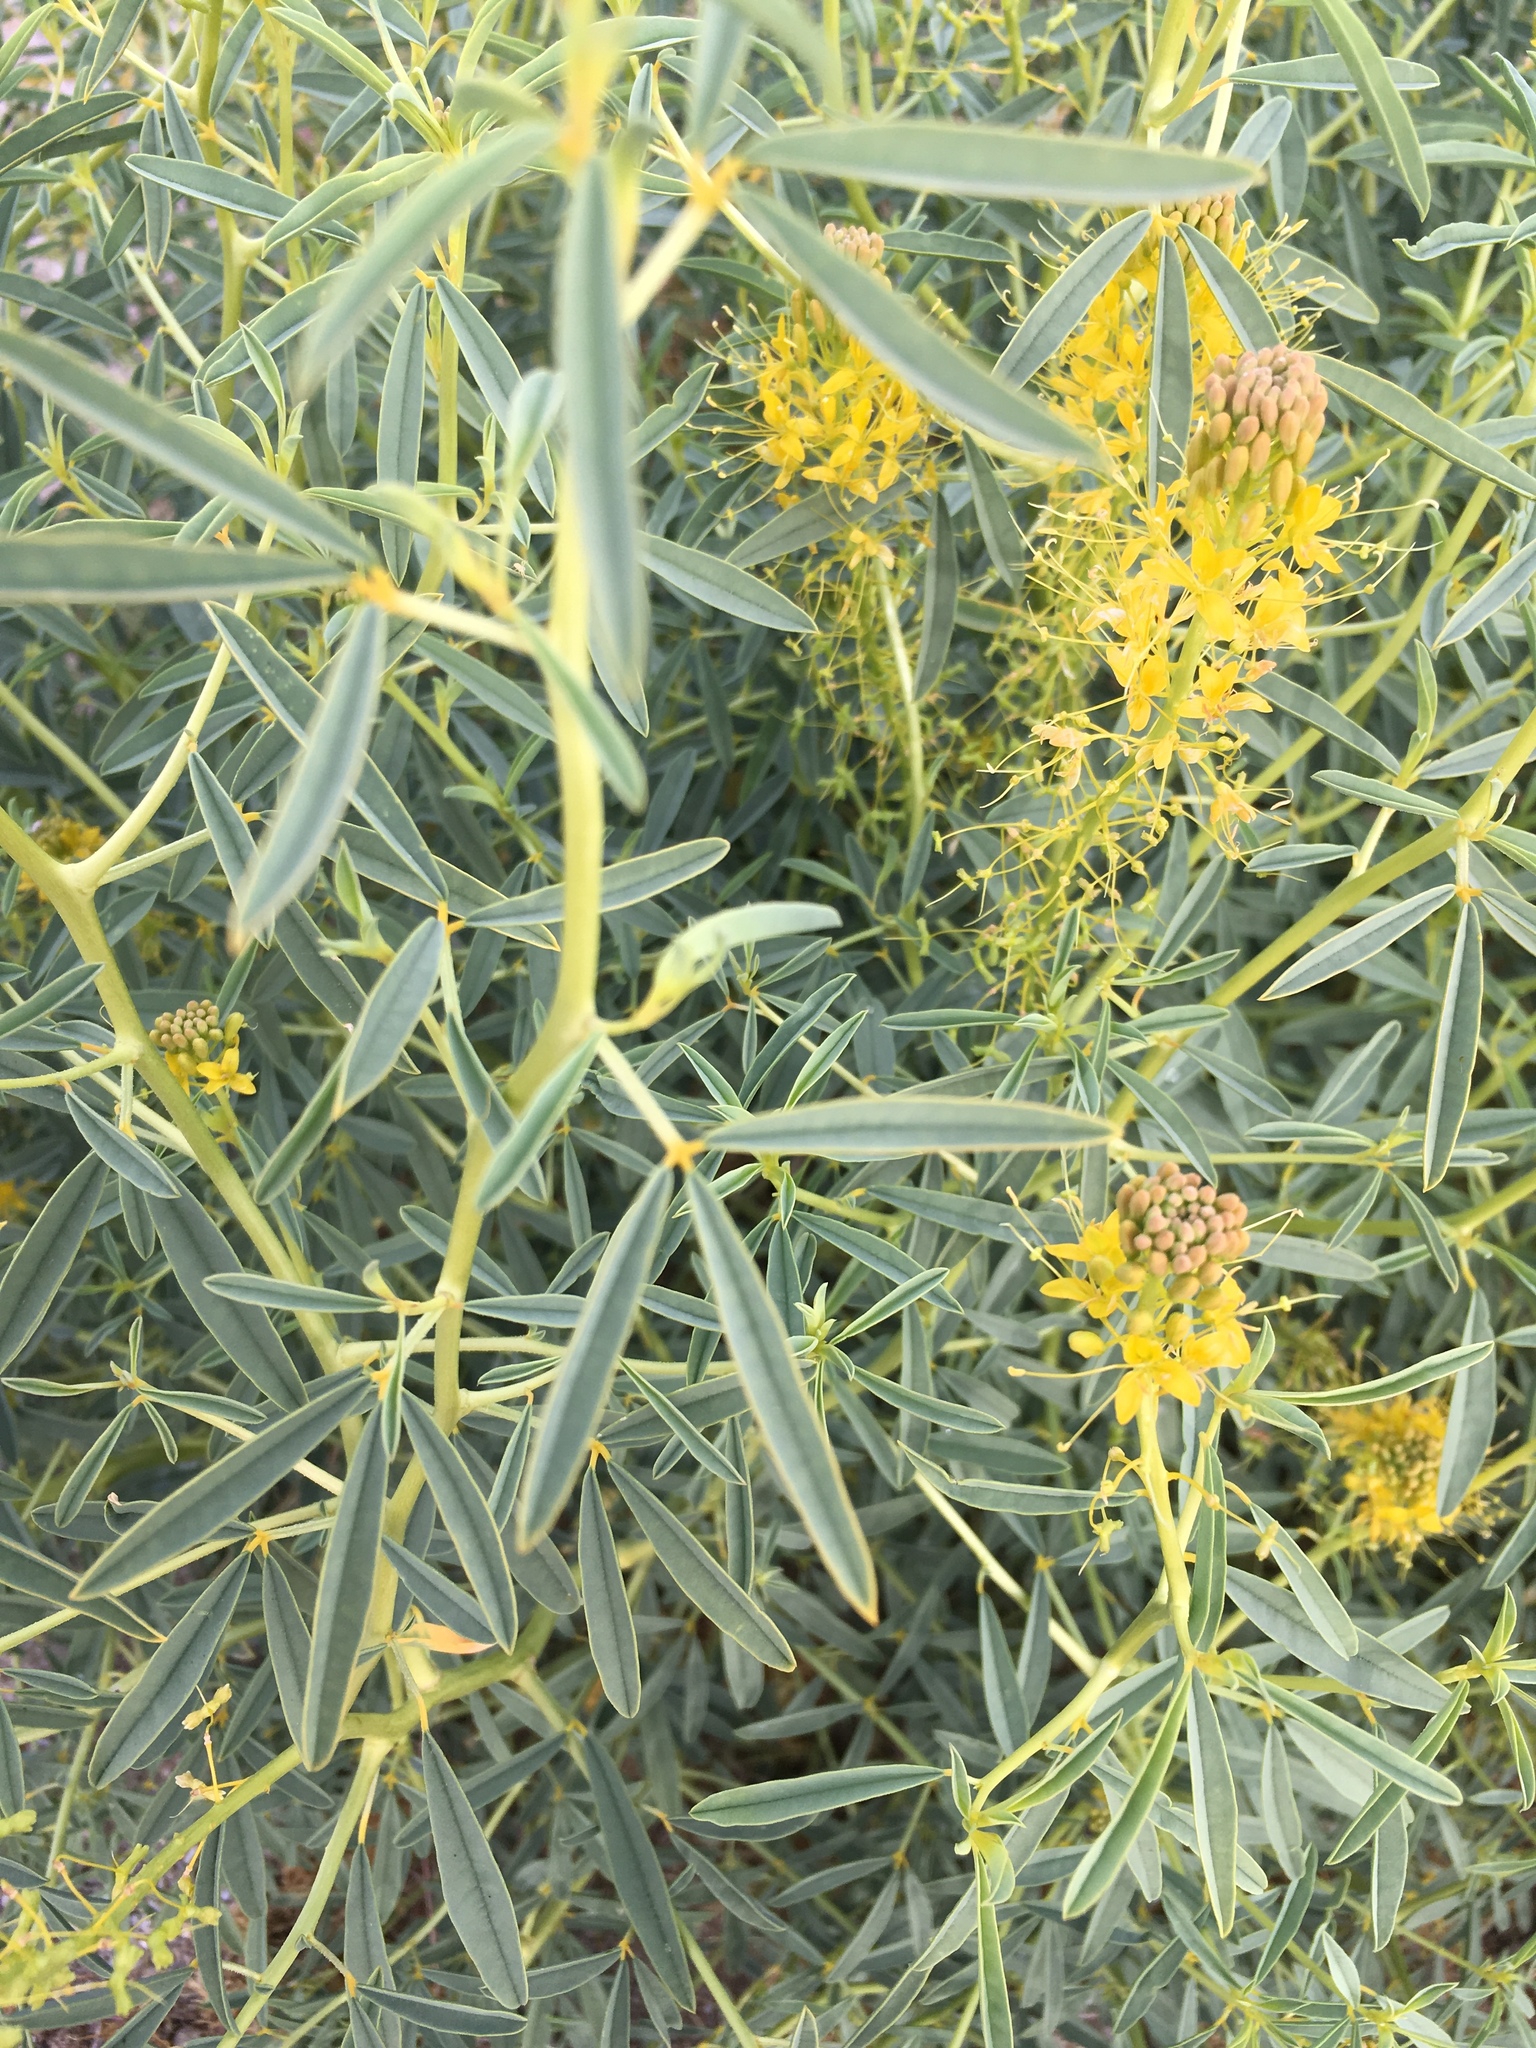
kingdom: Plantae
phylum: Tracheophyta
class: Magnoliopsida
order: Brassicales
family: Cleomaceae
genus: Cleomella
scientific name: Cleomella palmeri
